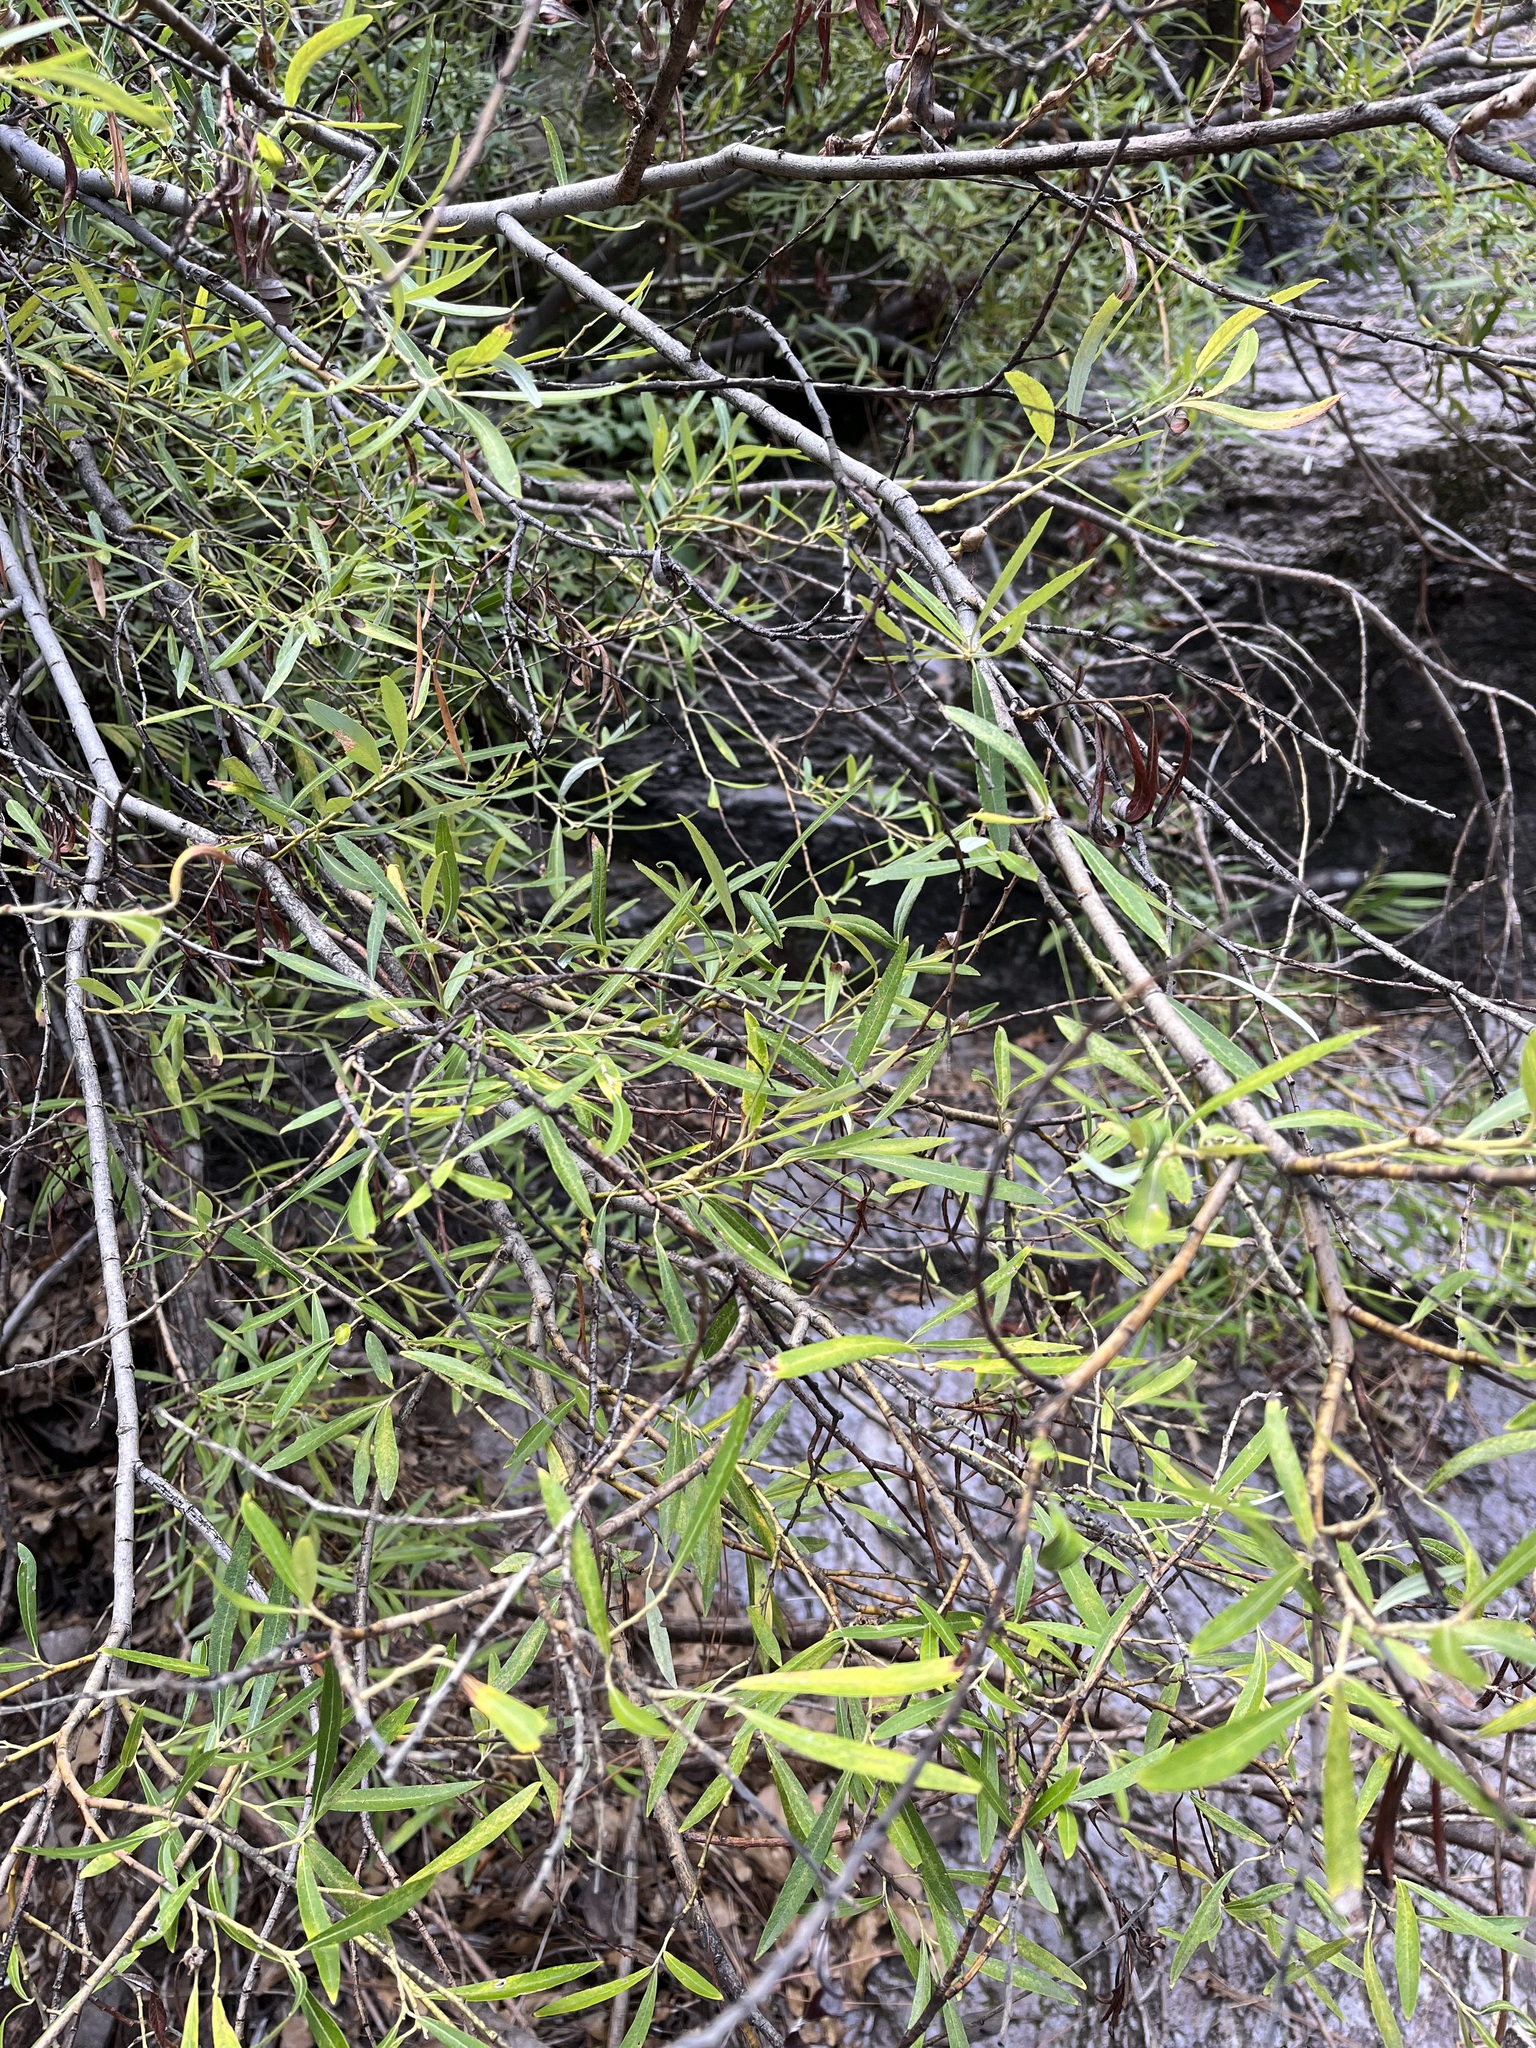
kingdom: Plantae
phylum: Tracheophyta
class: Magnoliopsida
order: Malpighiales
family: Salicaceae
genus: Salix
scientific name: Salix lasiolepis
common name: Arroyo willow
